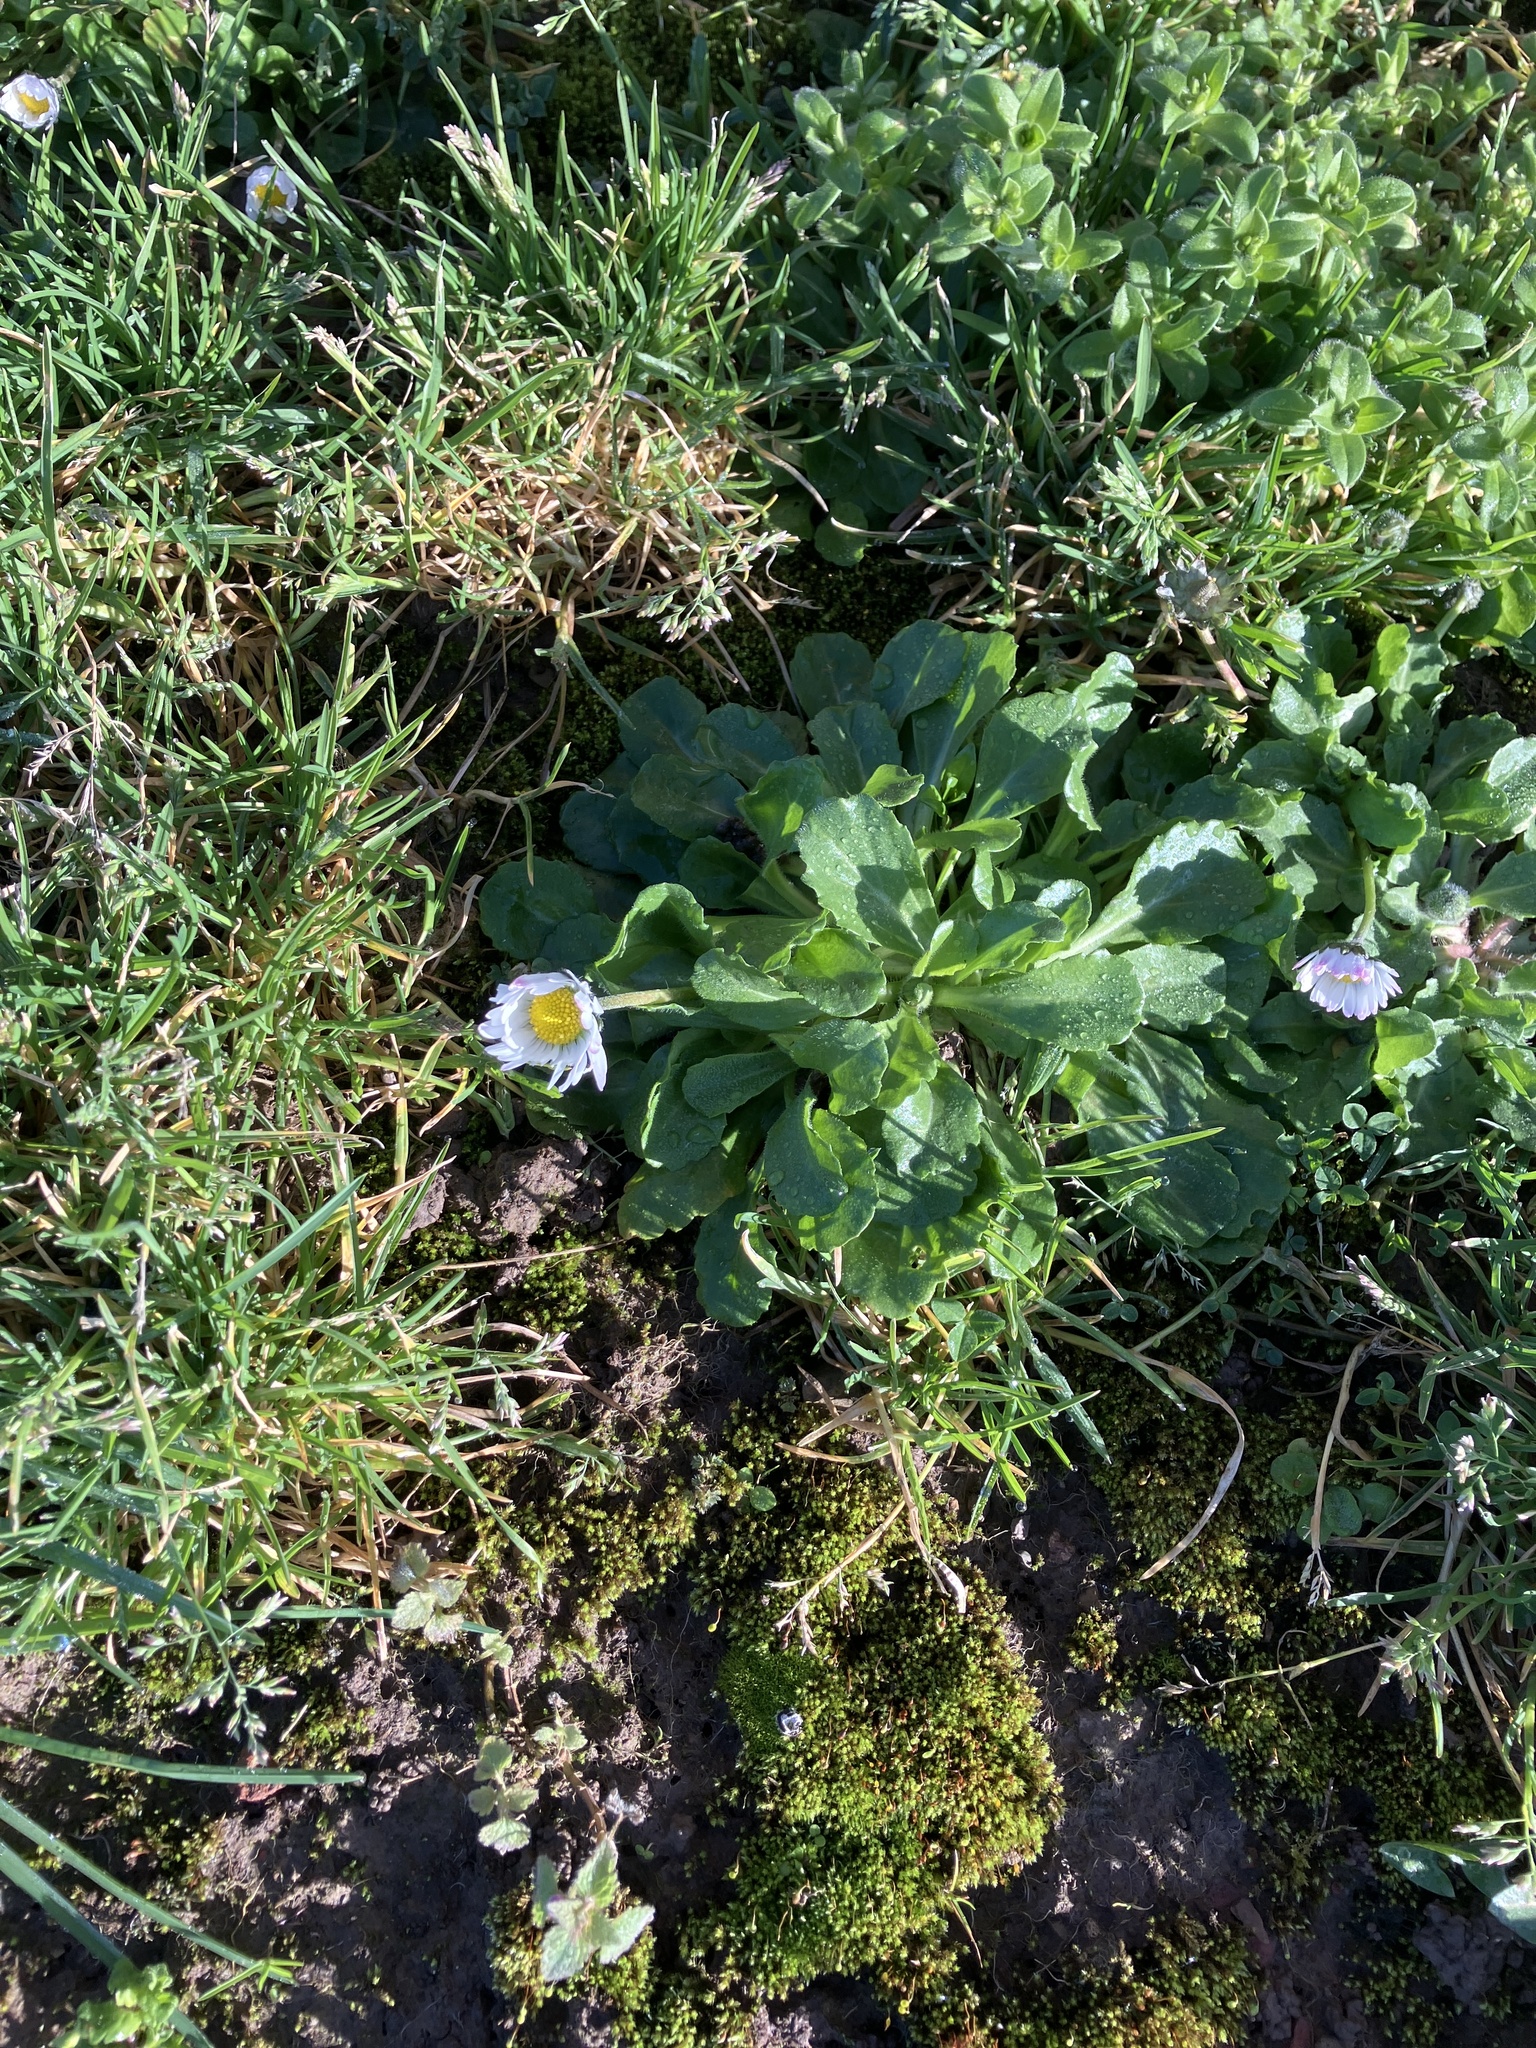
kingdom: Plantae
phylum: Tracheophyta
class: Magnoliopsida
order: Asterales
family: Asteraceae
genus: Bellis
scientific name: Bellis perennis
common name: Lawndaisy
